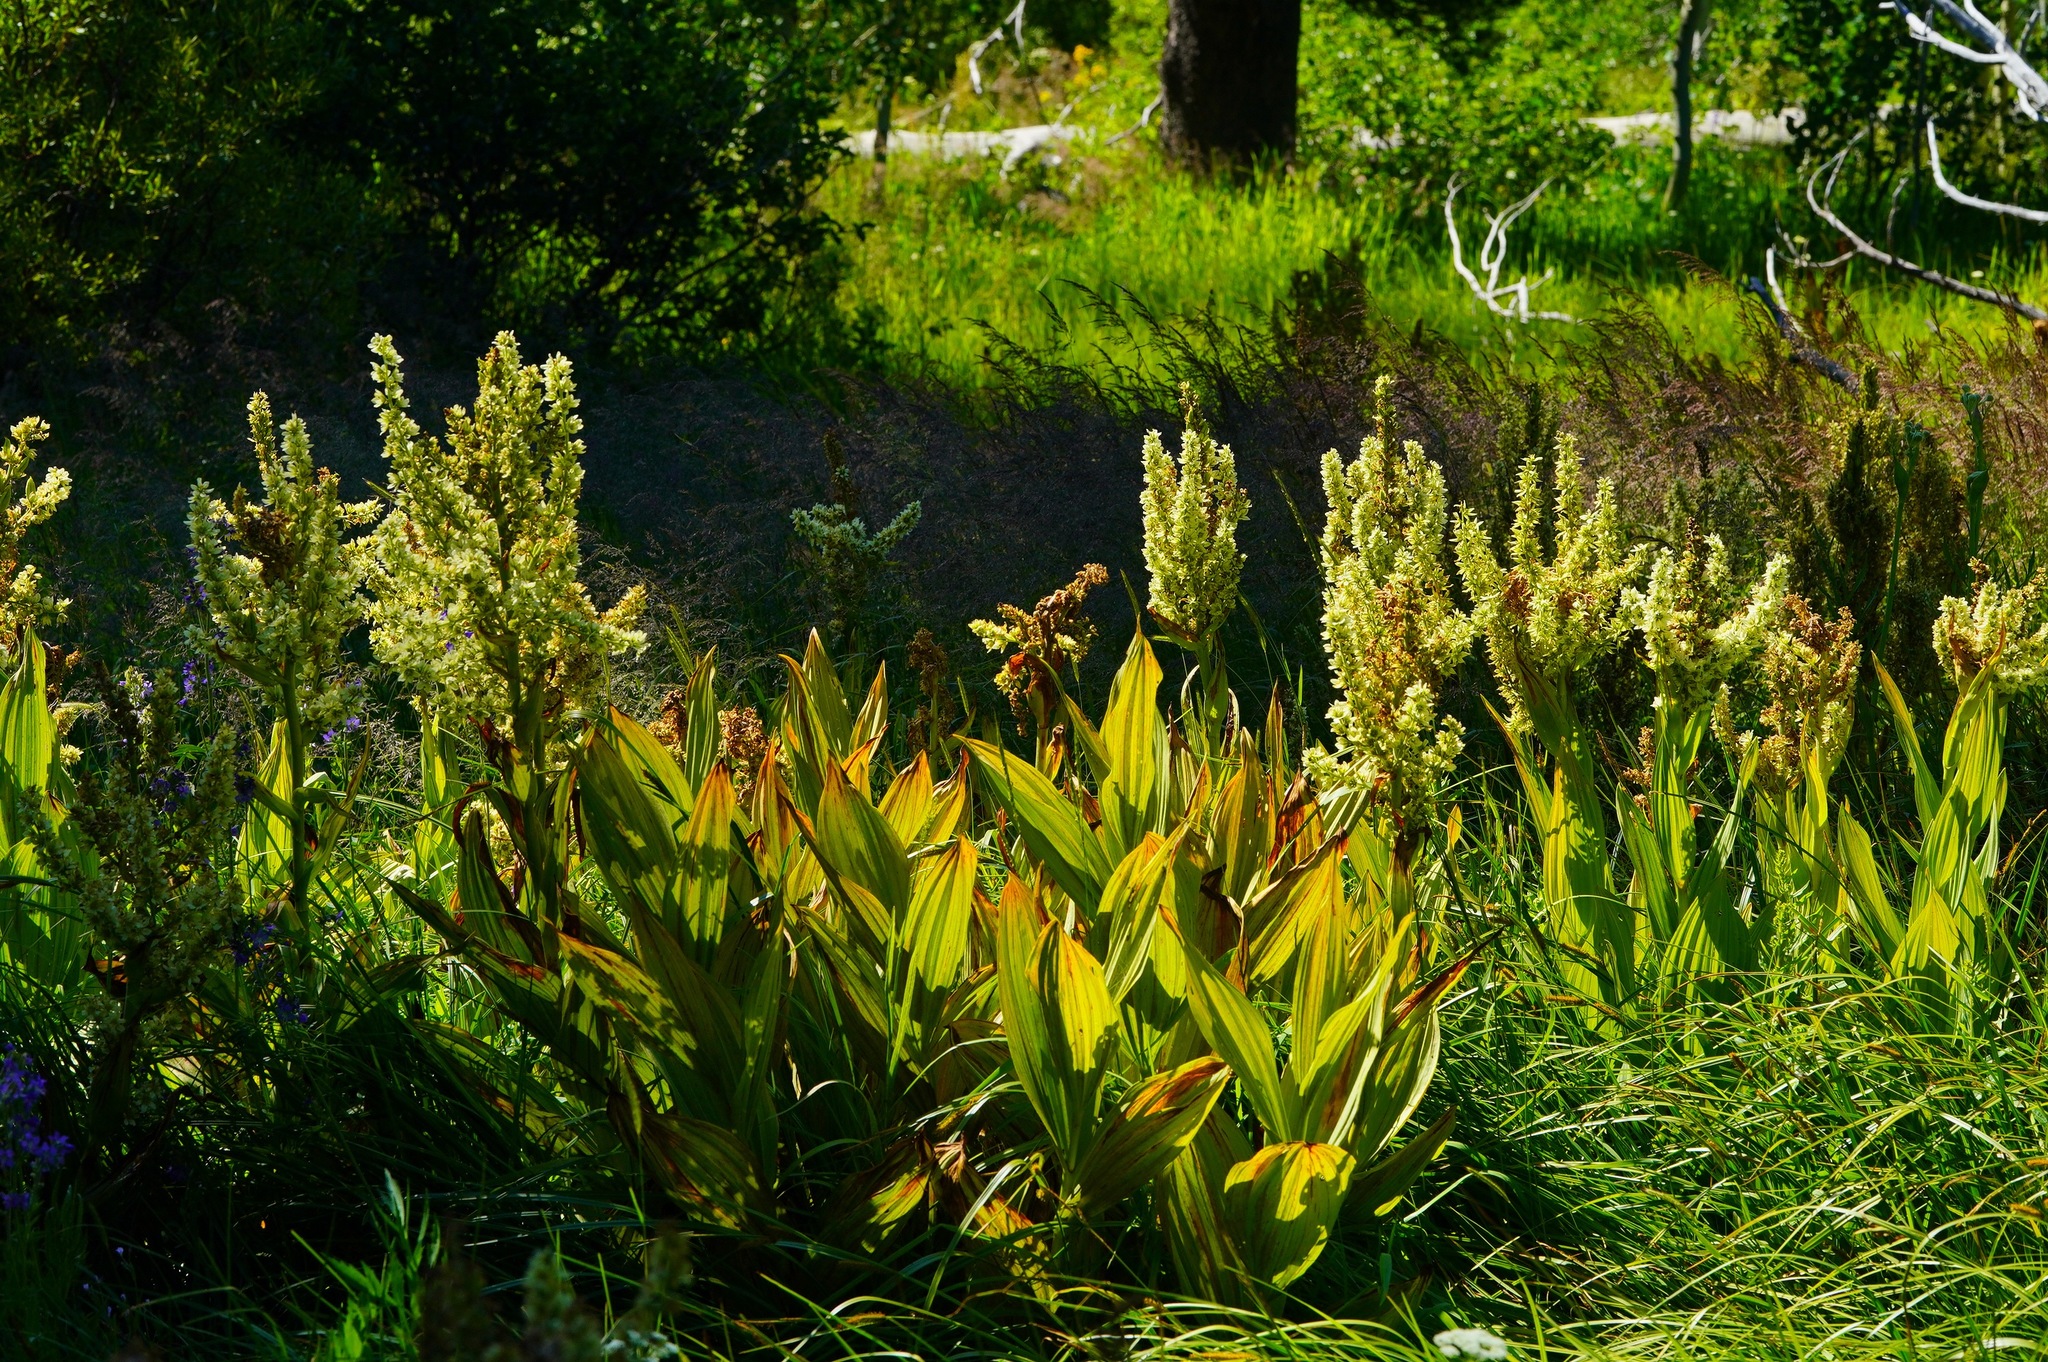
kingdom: Plantae
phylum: Tracheophyta
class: Liliopsida
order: Liliales
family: Melanthiaceae
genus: Veratrum
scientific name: Veratrum californicum
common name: California veratrum
